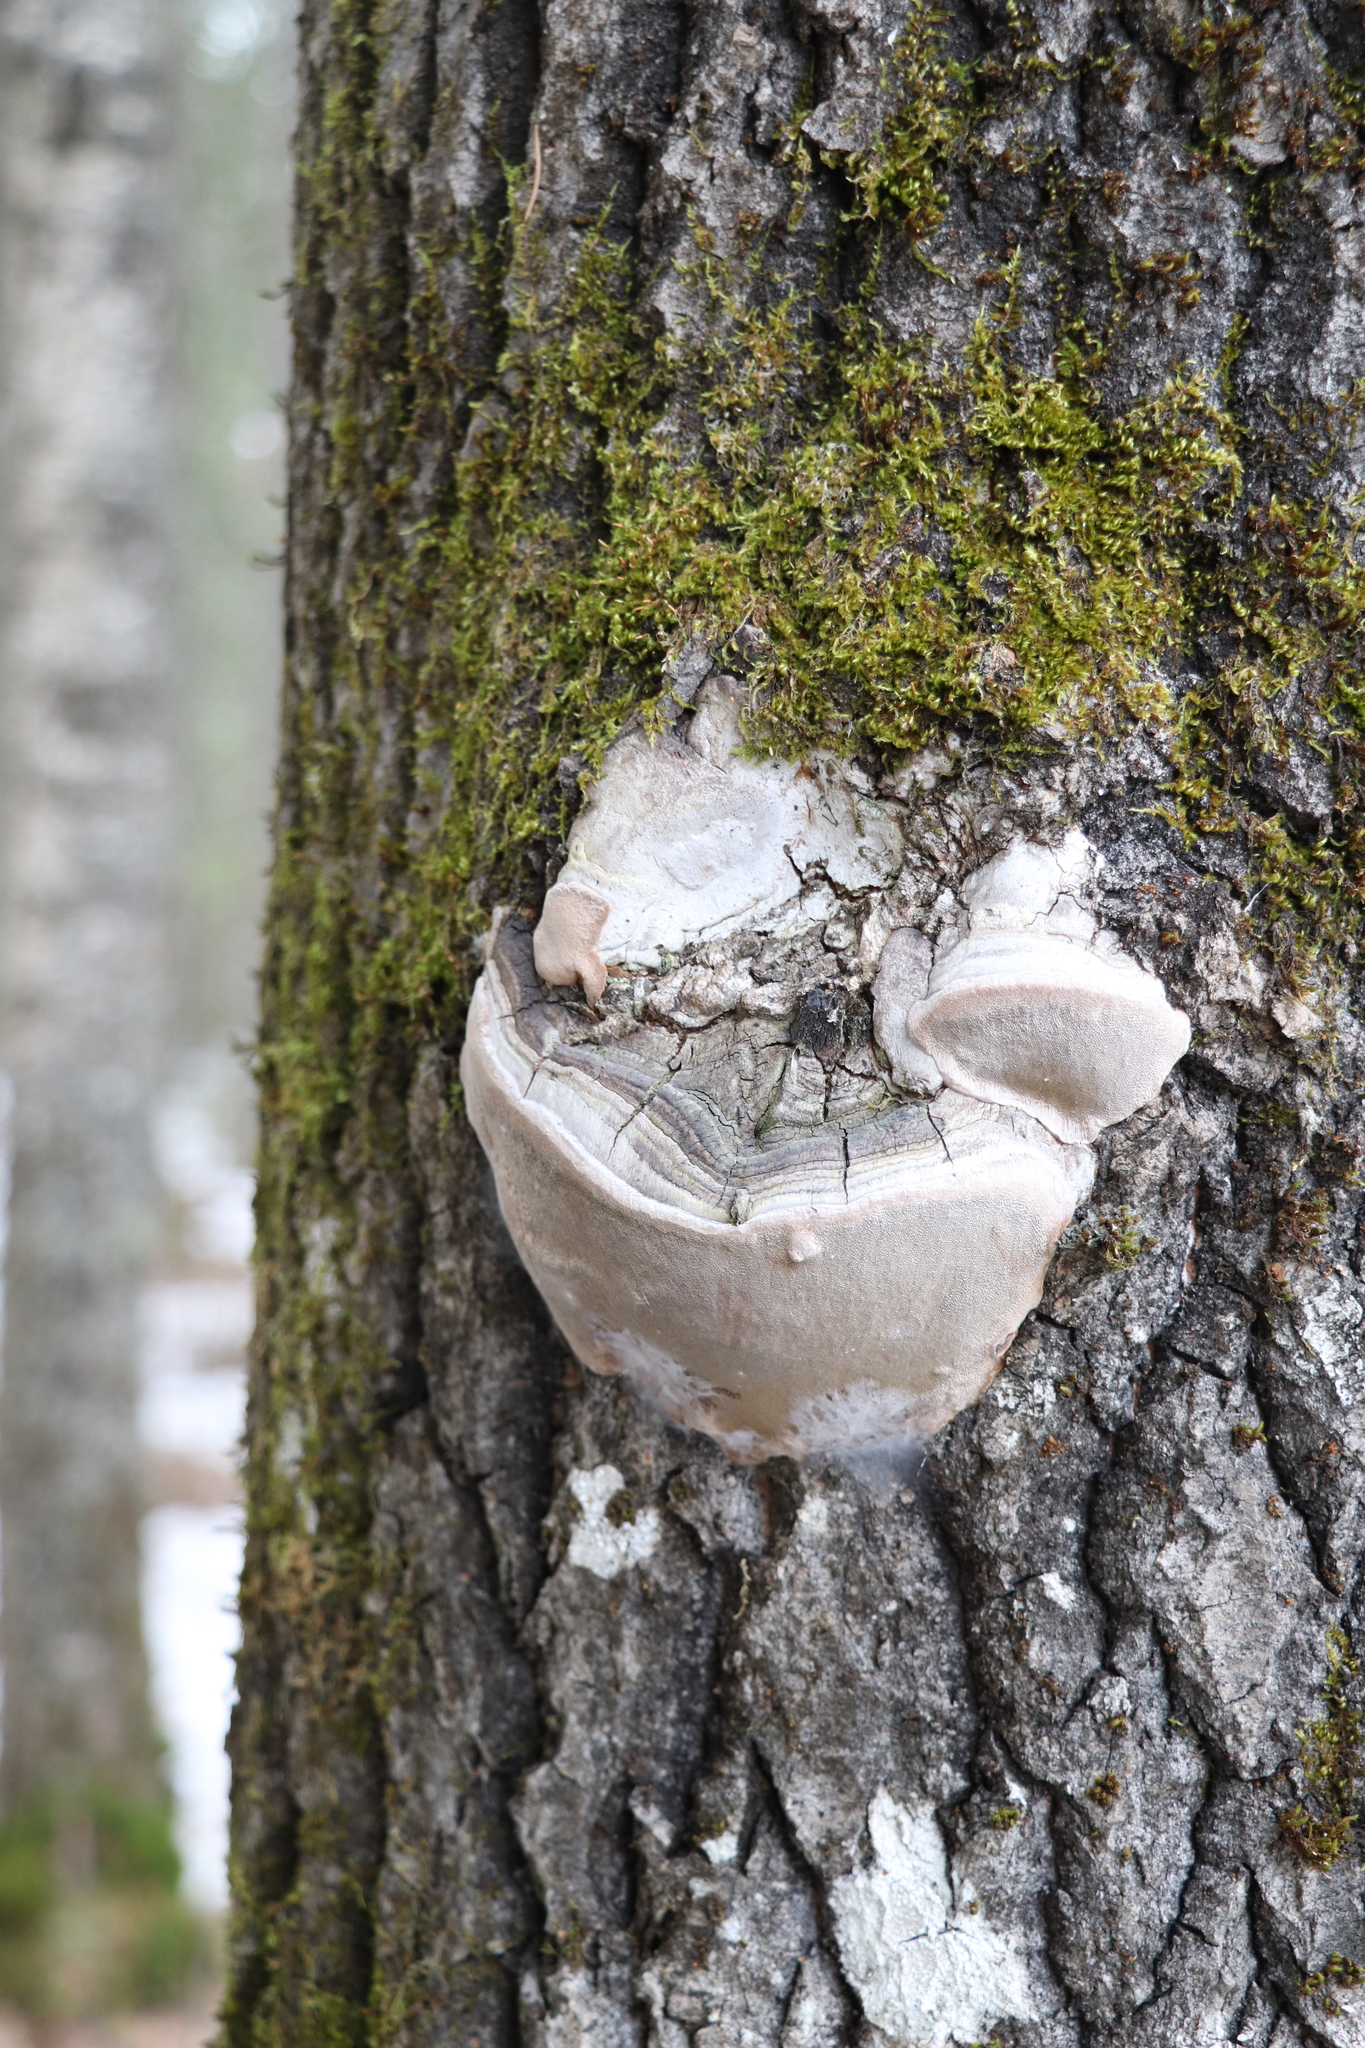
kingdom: Fungi
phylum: Basidiomycota
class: Agaricomycetes
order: Hymenochaetales
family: Hymenochaetaceae
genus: Phellinus
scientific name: Phellinus tremulae
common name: Aspen bracket
